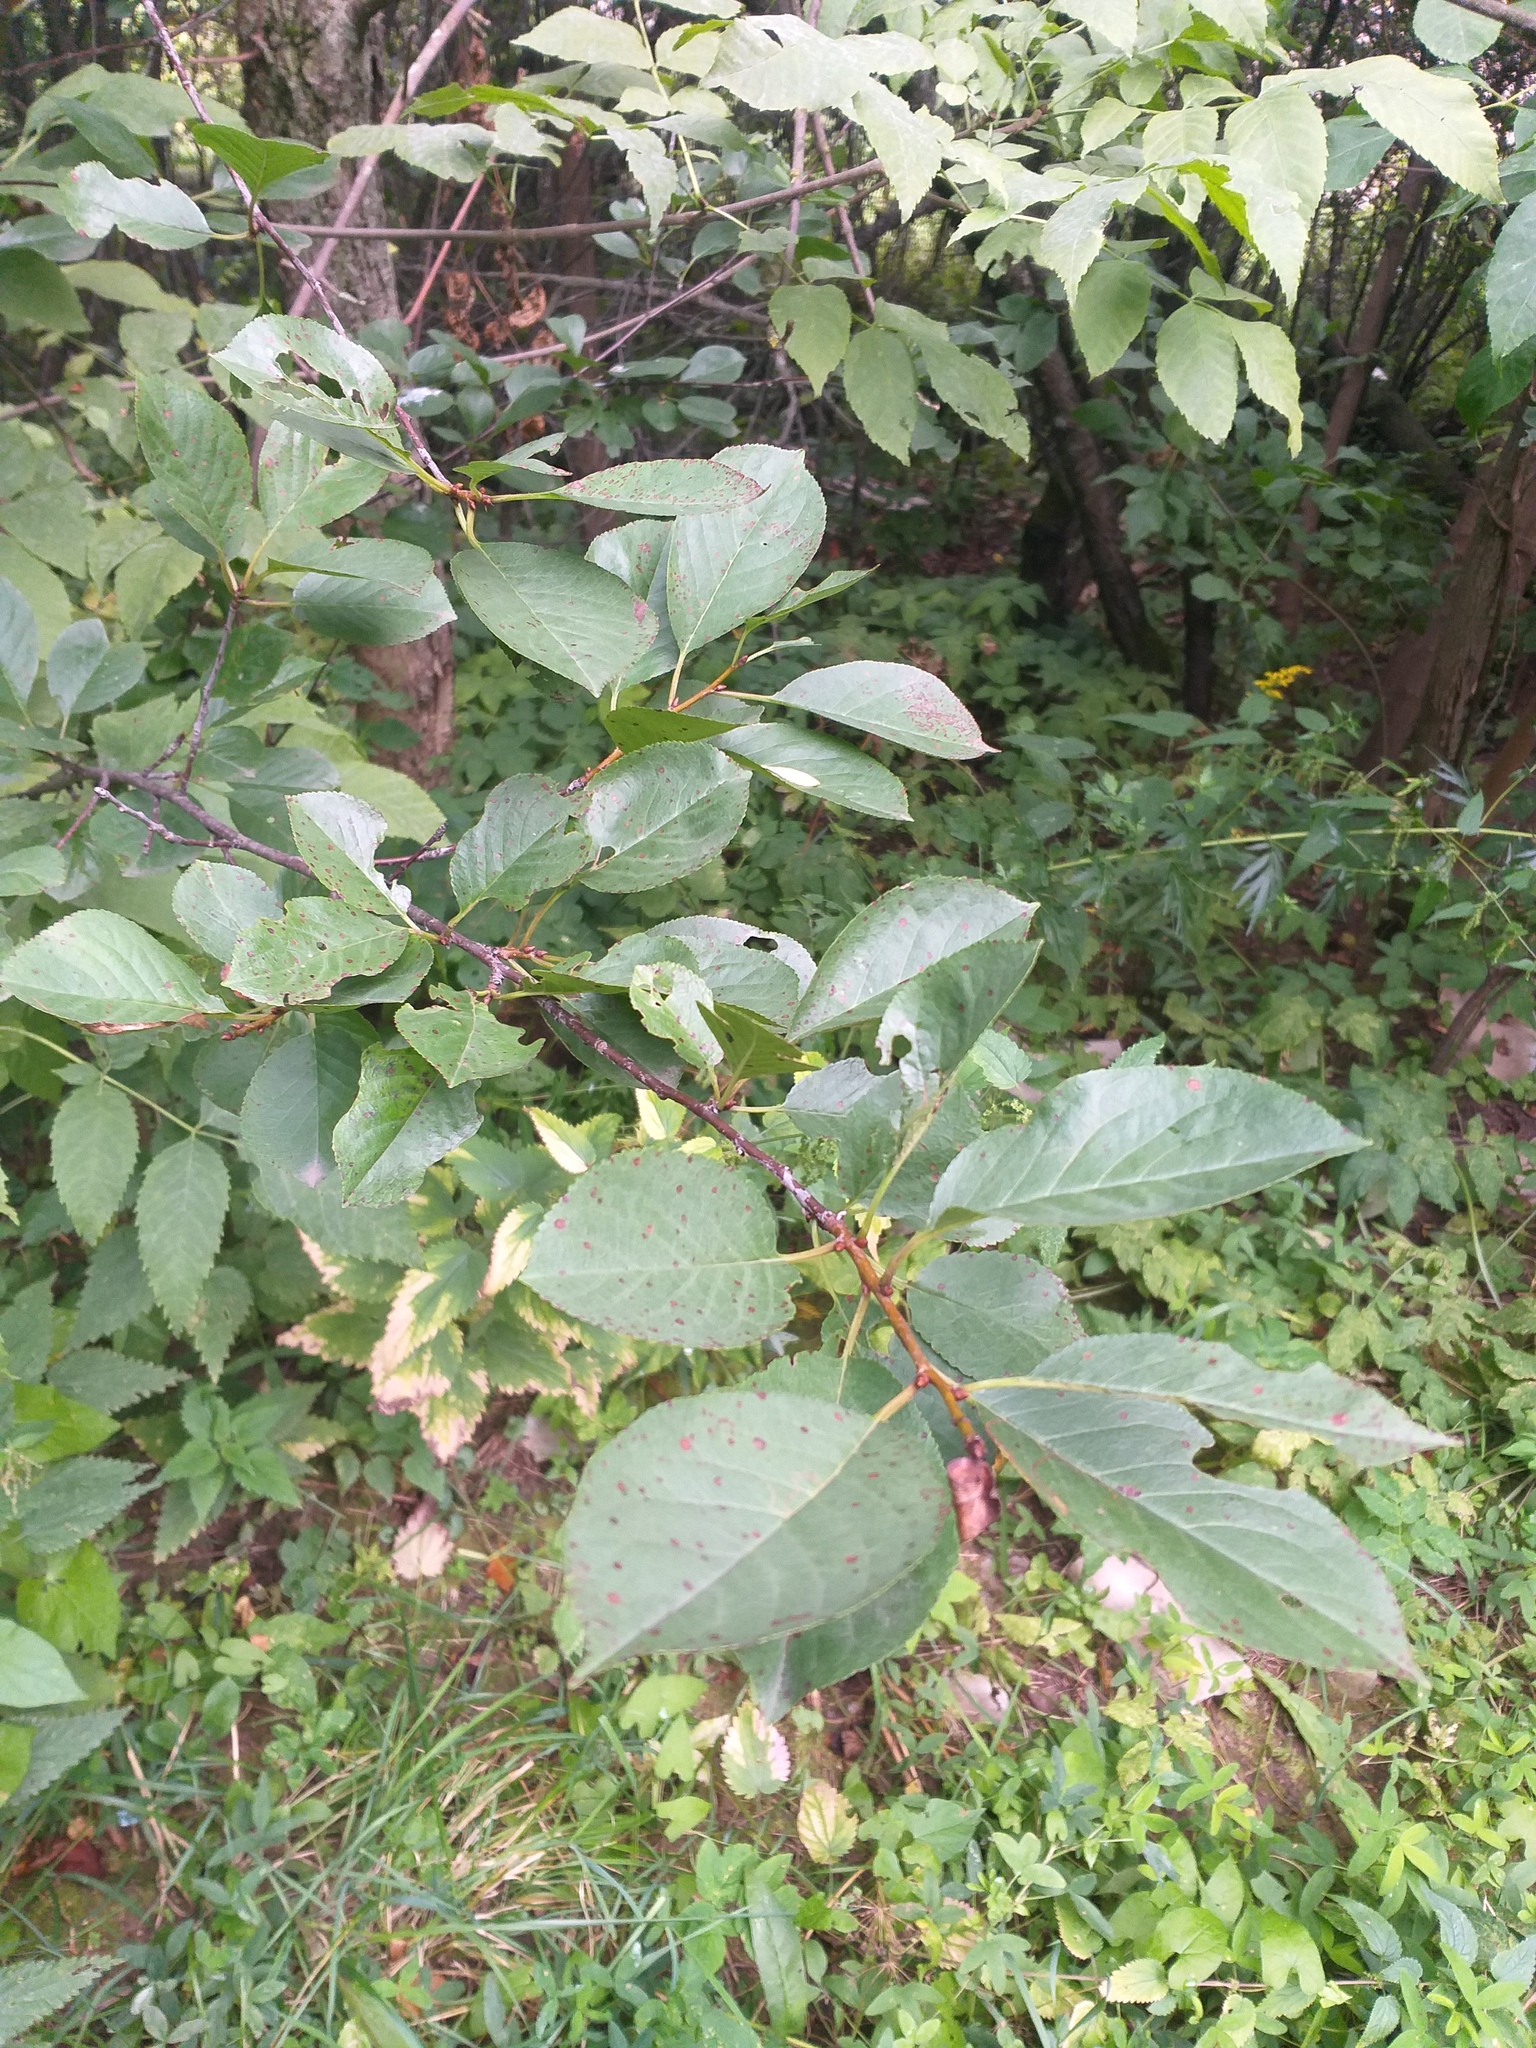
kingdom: Plantae
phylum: Tracheophyta
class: Magnoliopsida
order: Rosales
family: Rosaceae
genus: Prunus
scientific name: Prunus cerasus
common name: Morello cherry
